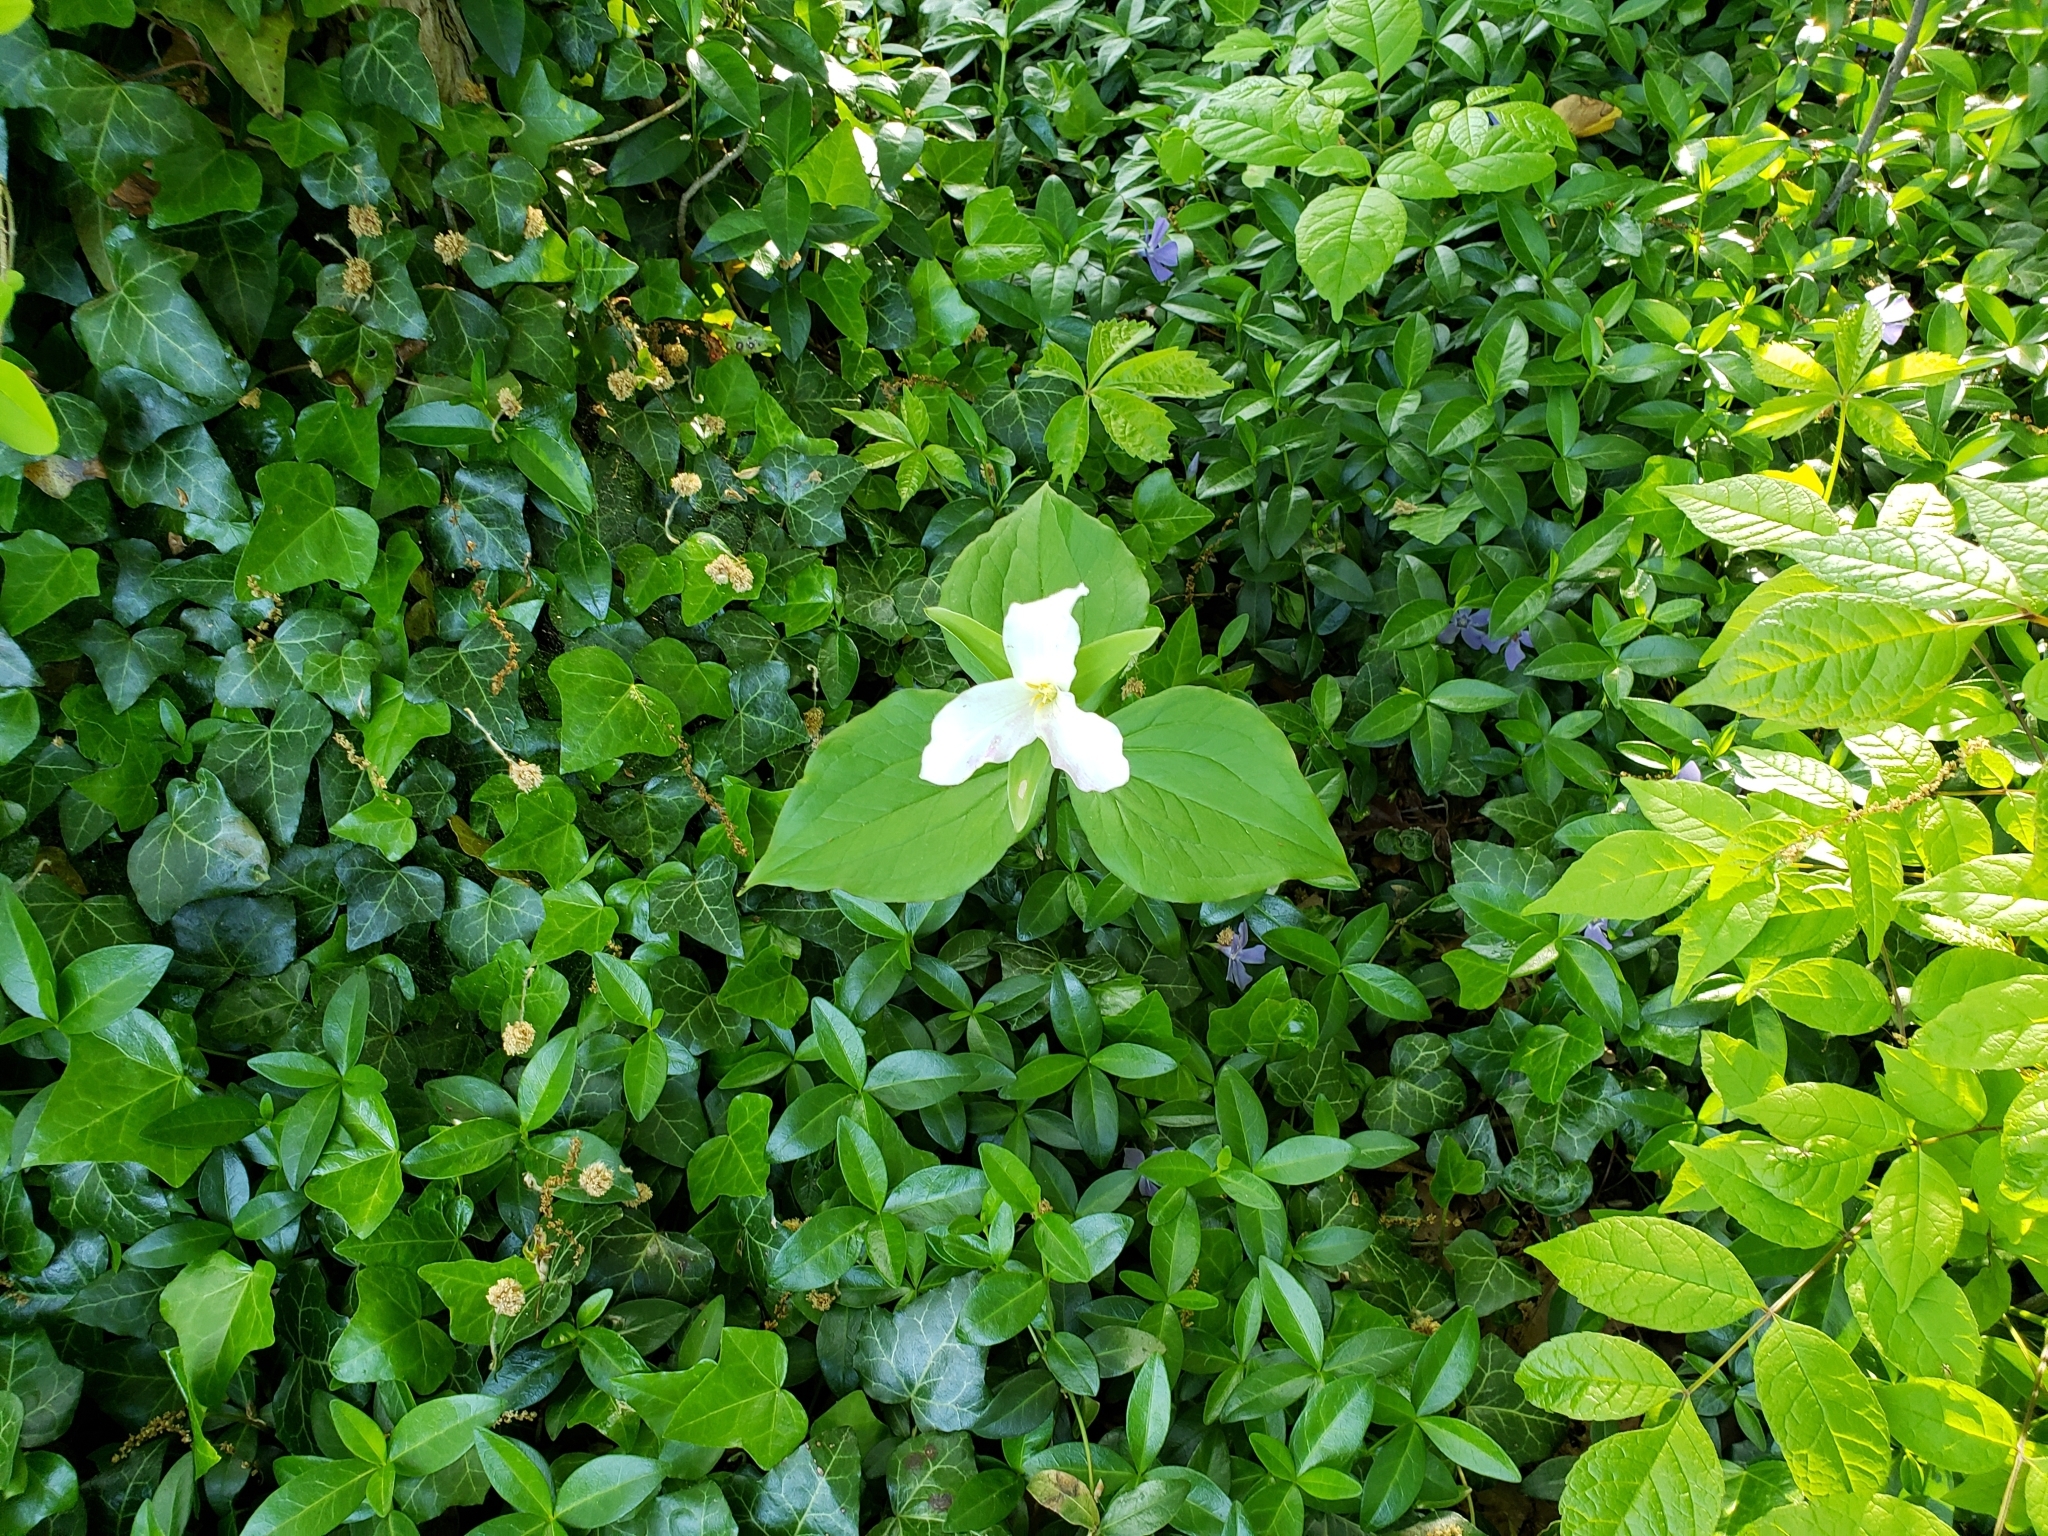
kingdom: Plantae
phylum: Tracheophyta
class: Liliopsida
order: Liliales
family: Melanthiaceae
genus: Trillium
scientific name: Trillium grandiflorum
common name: Great white trillium
